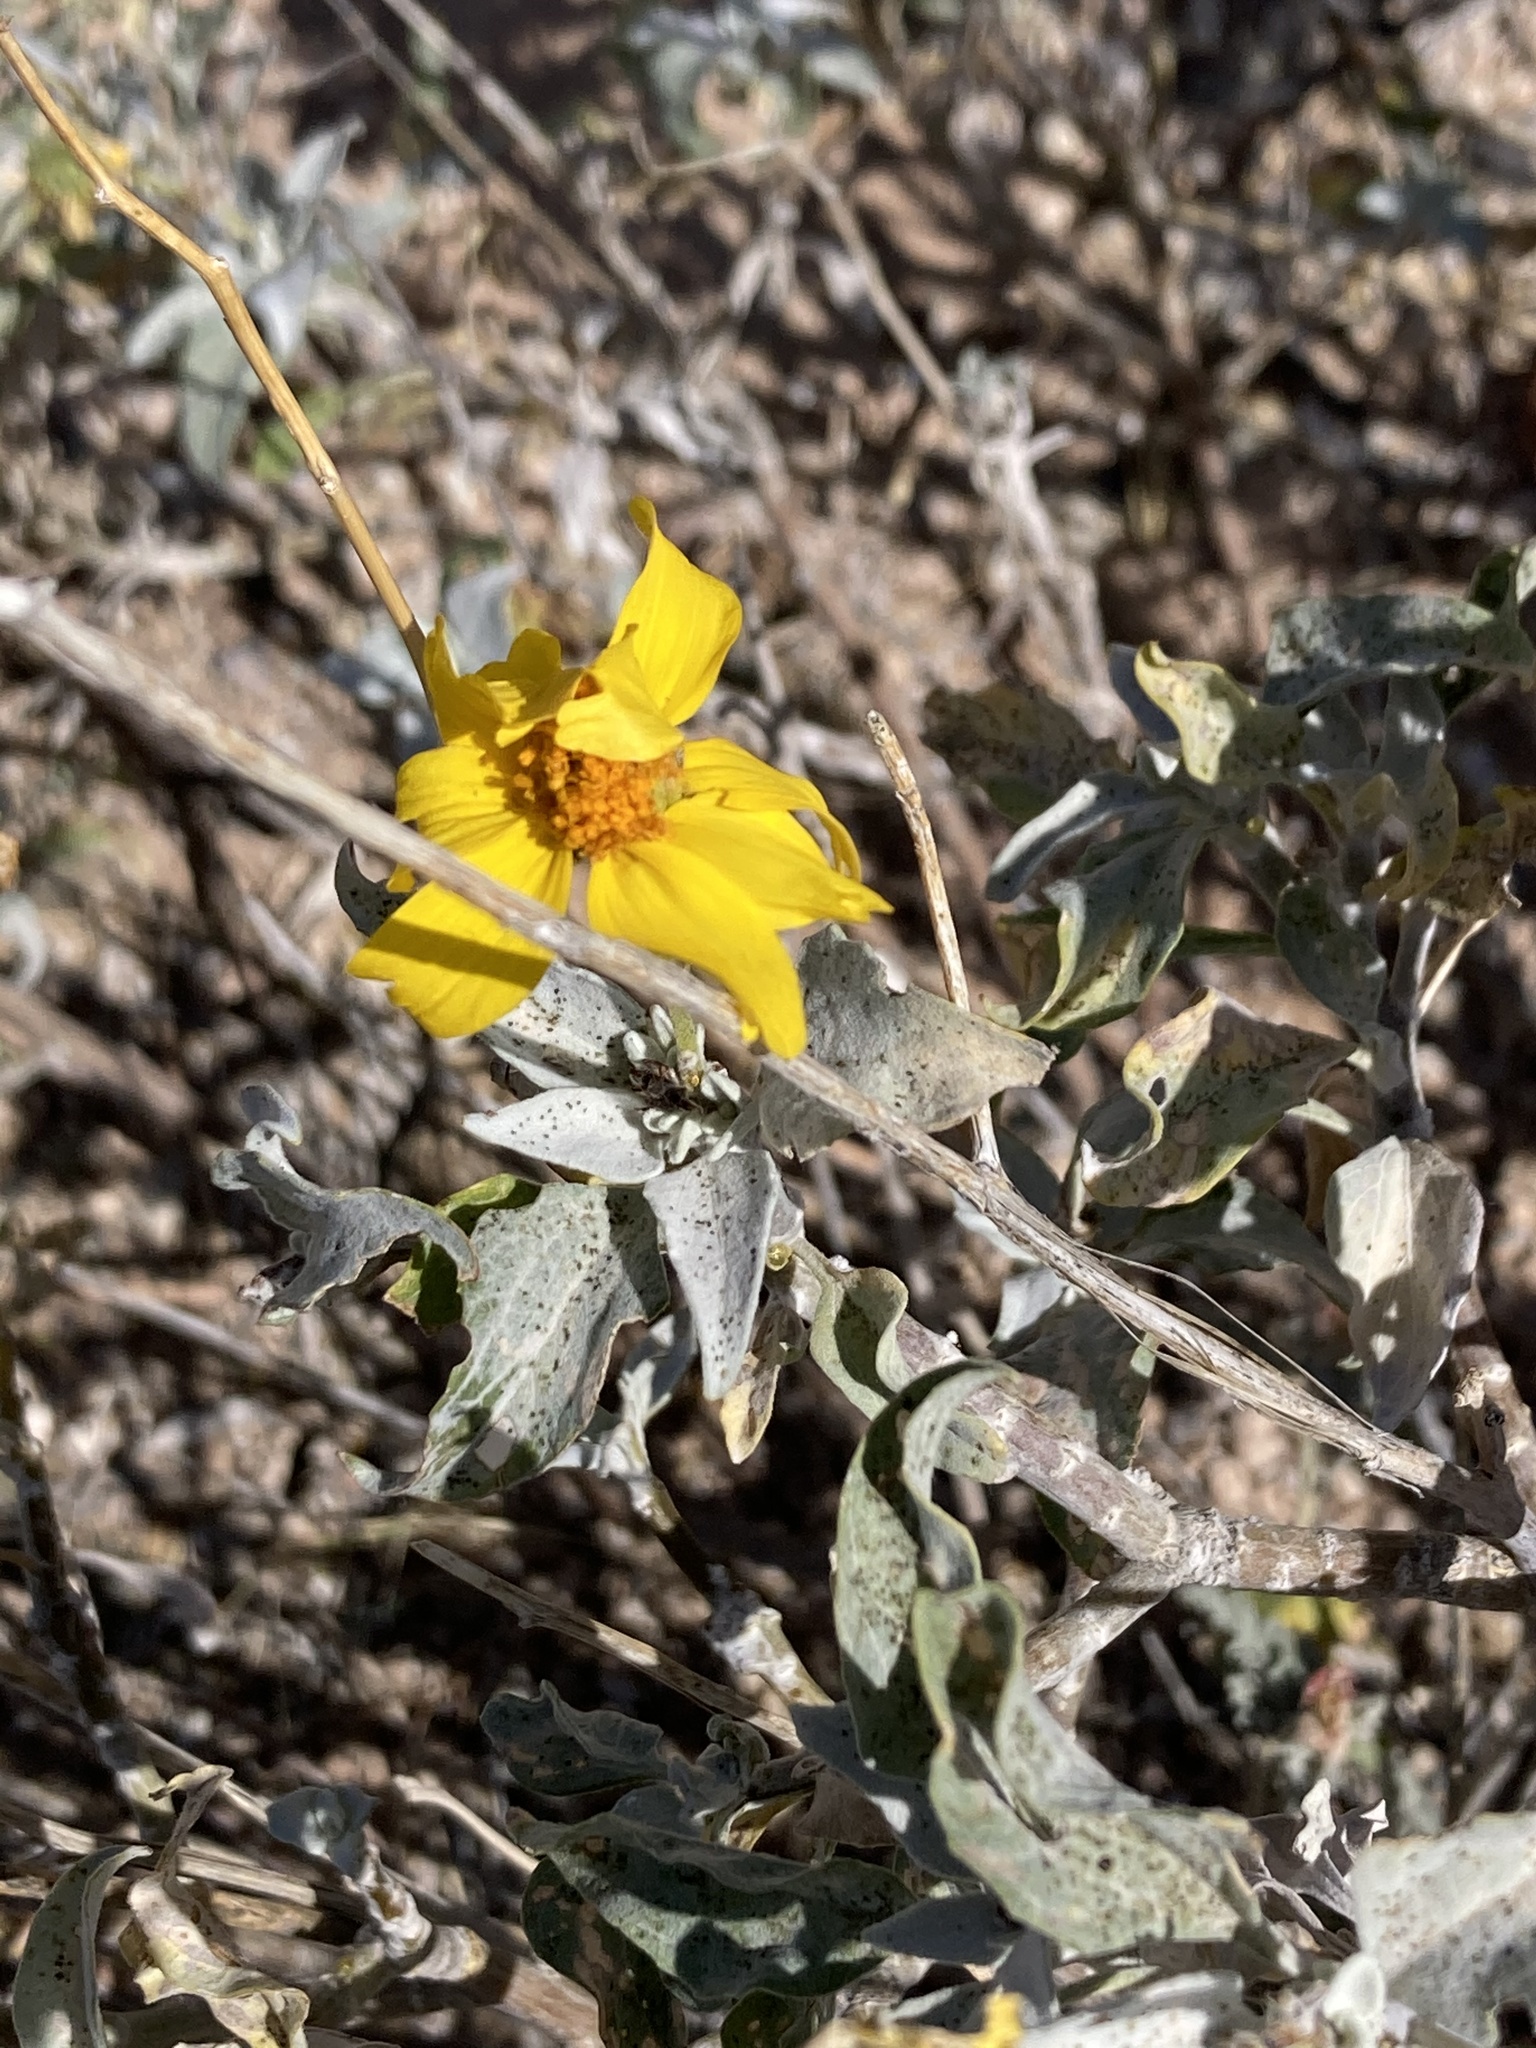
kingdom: Plantae
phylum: Tracheophyta
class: Magnoliopsida
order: Asterales
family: Asteraceae
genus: Encelia
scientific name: Encelia farinosa
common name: Brittlebush
